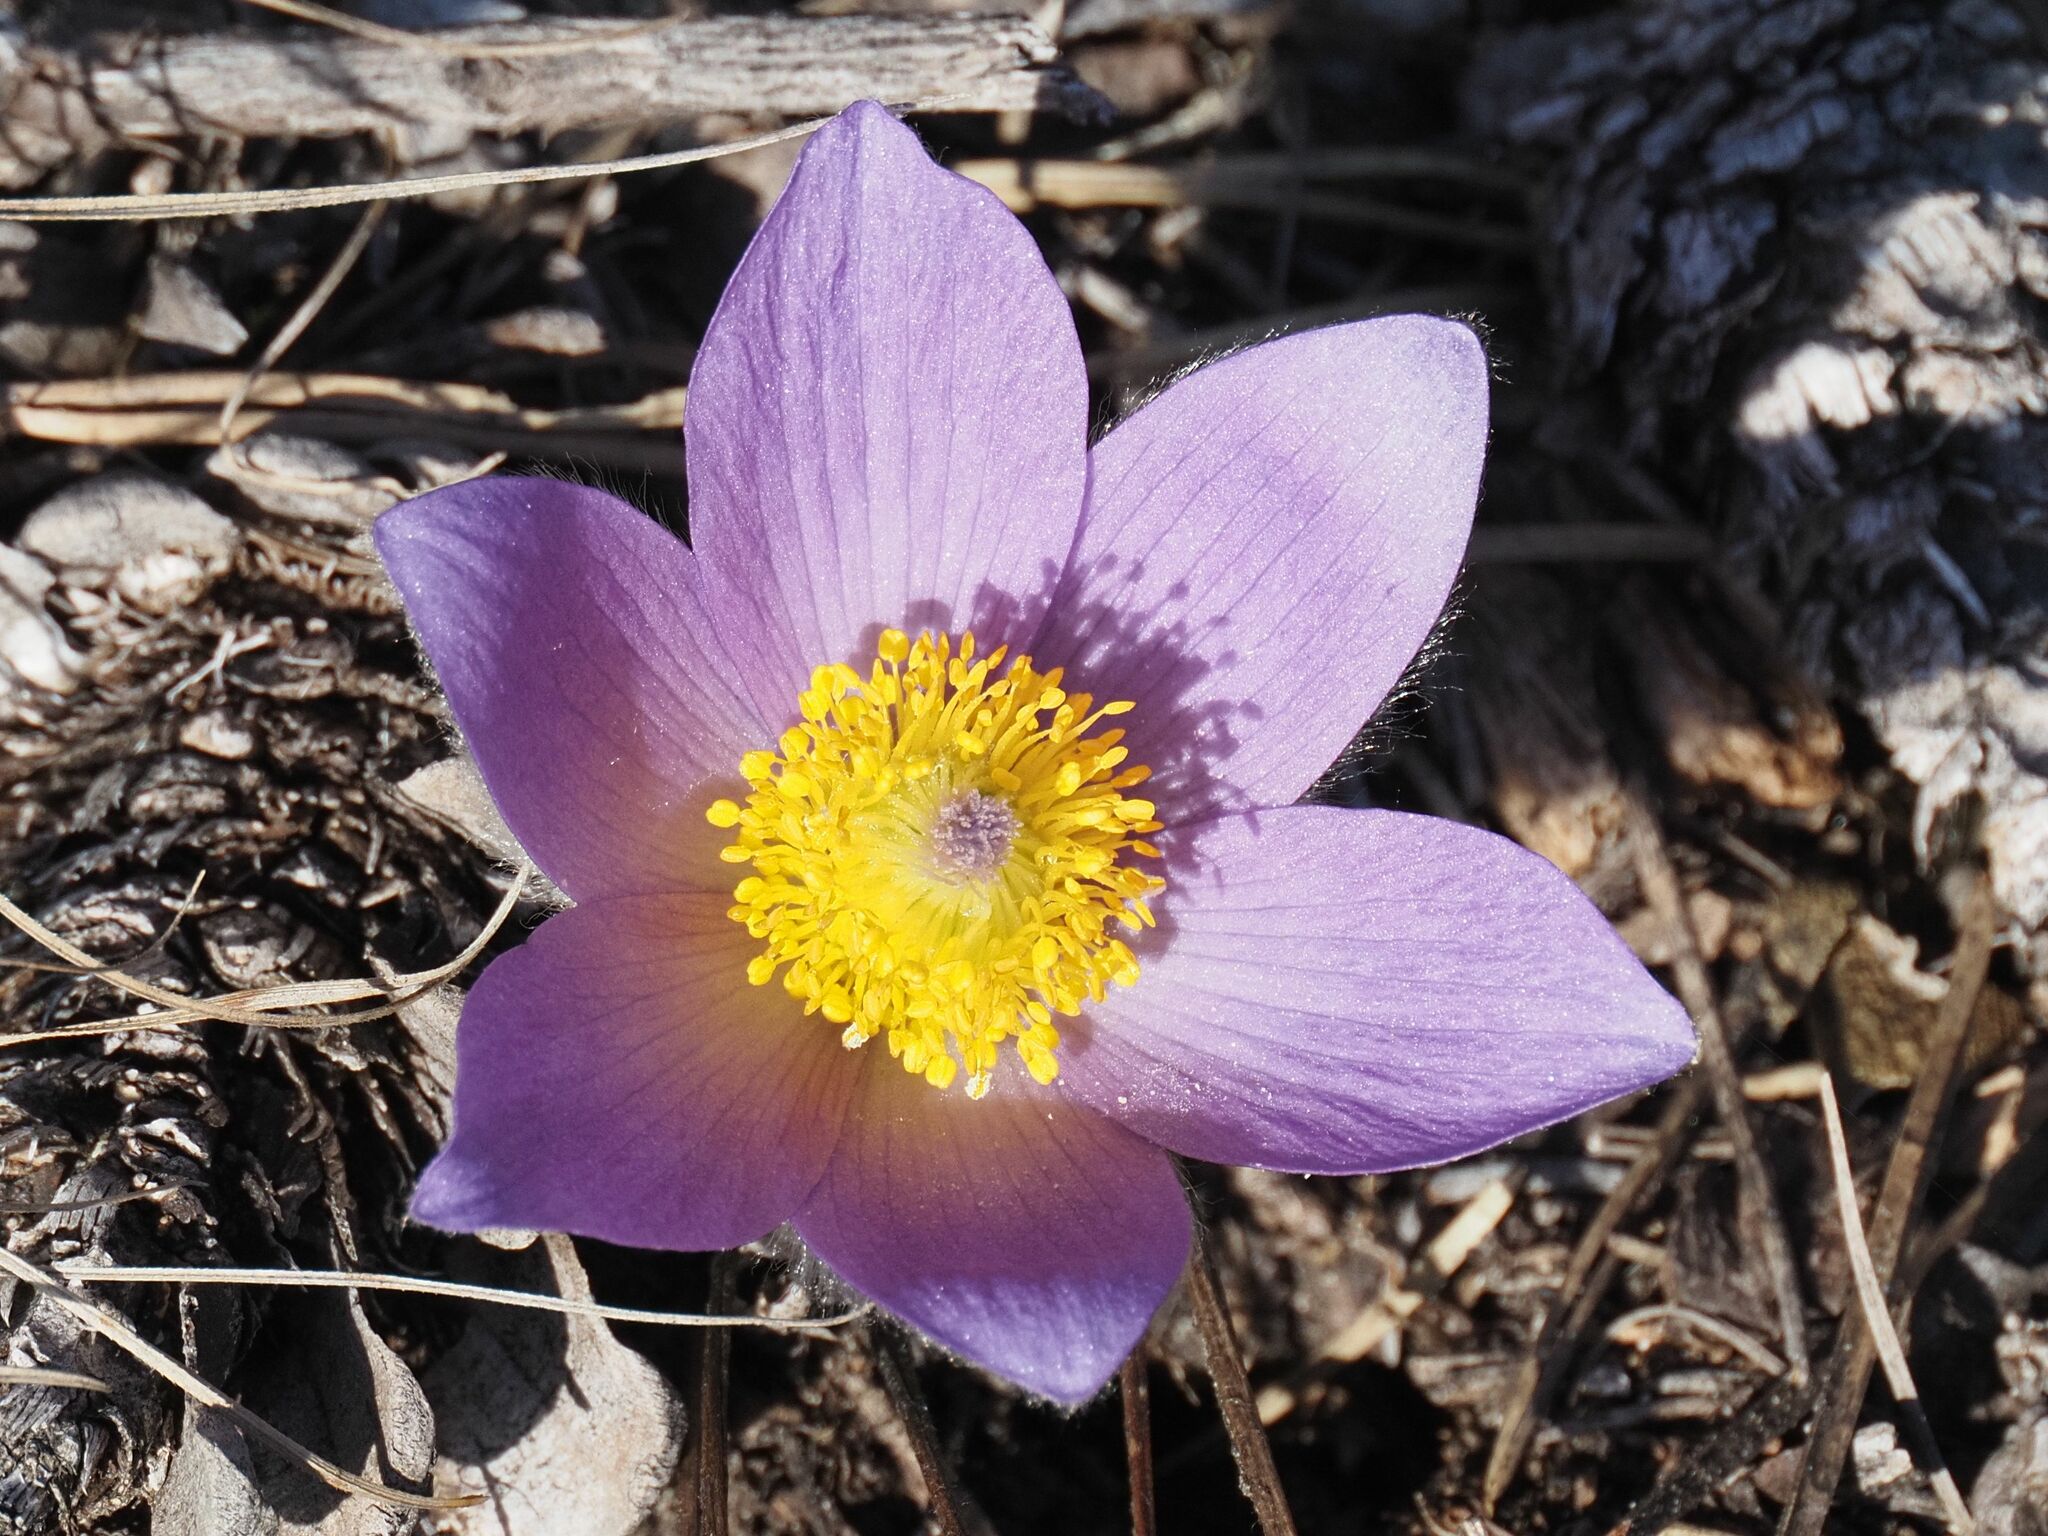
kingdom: Plantae
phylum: Tracheophyta
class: Magnoliopsida
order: Ranunculales
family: Ranunculaceae
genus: Pulsatilla
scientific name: Pulsatilla grandis
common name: Greater pasque flower
